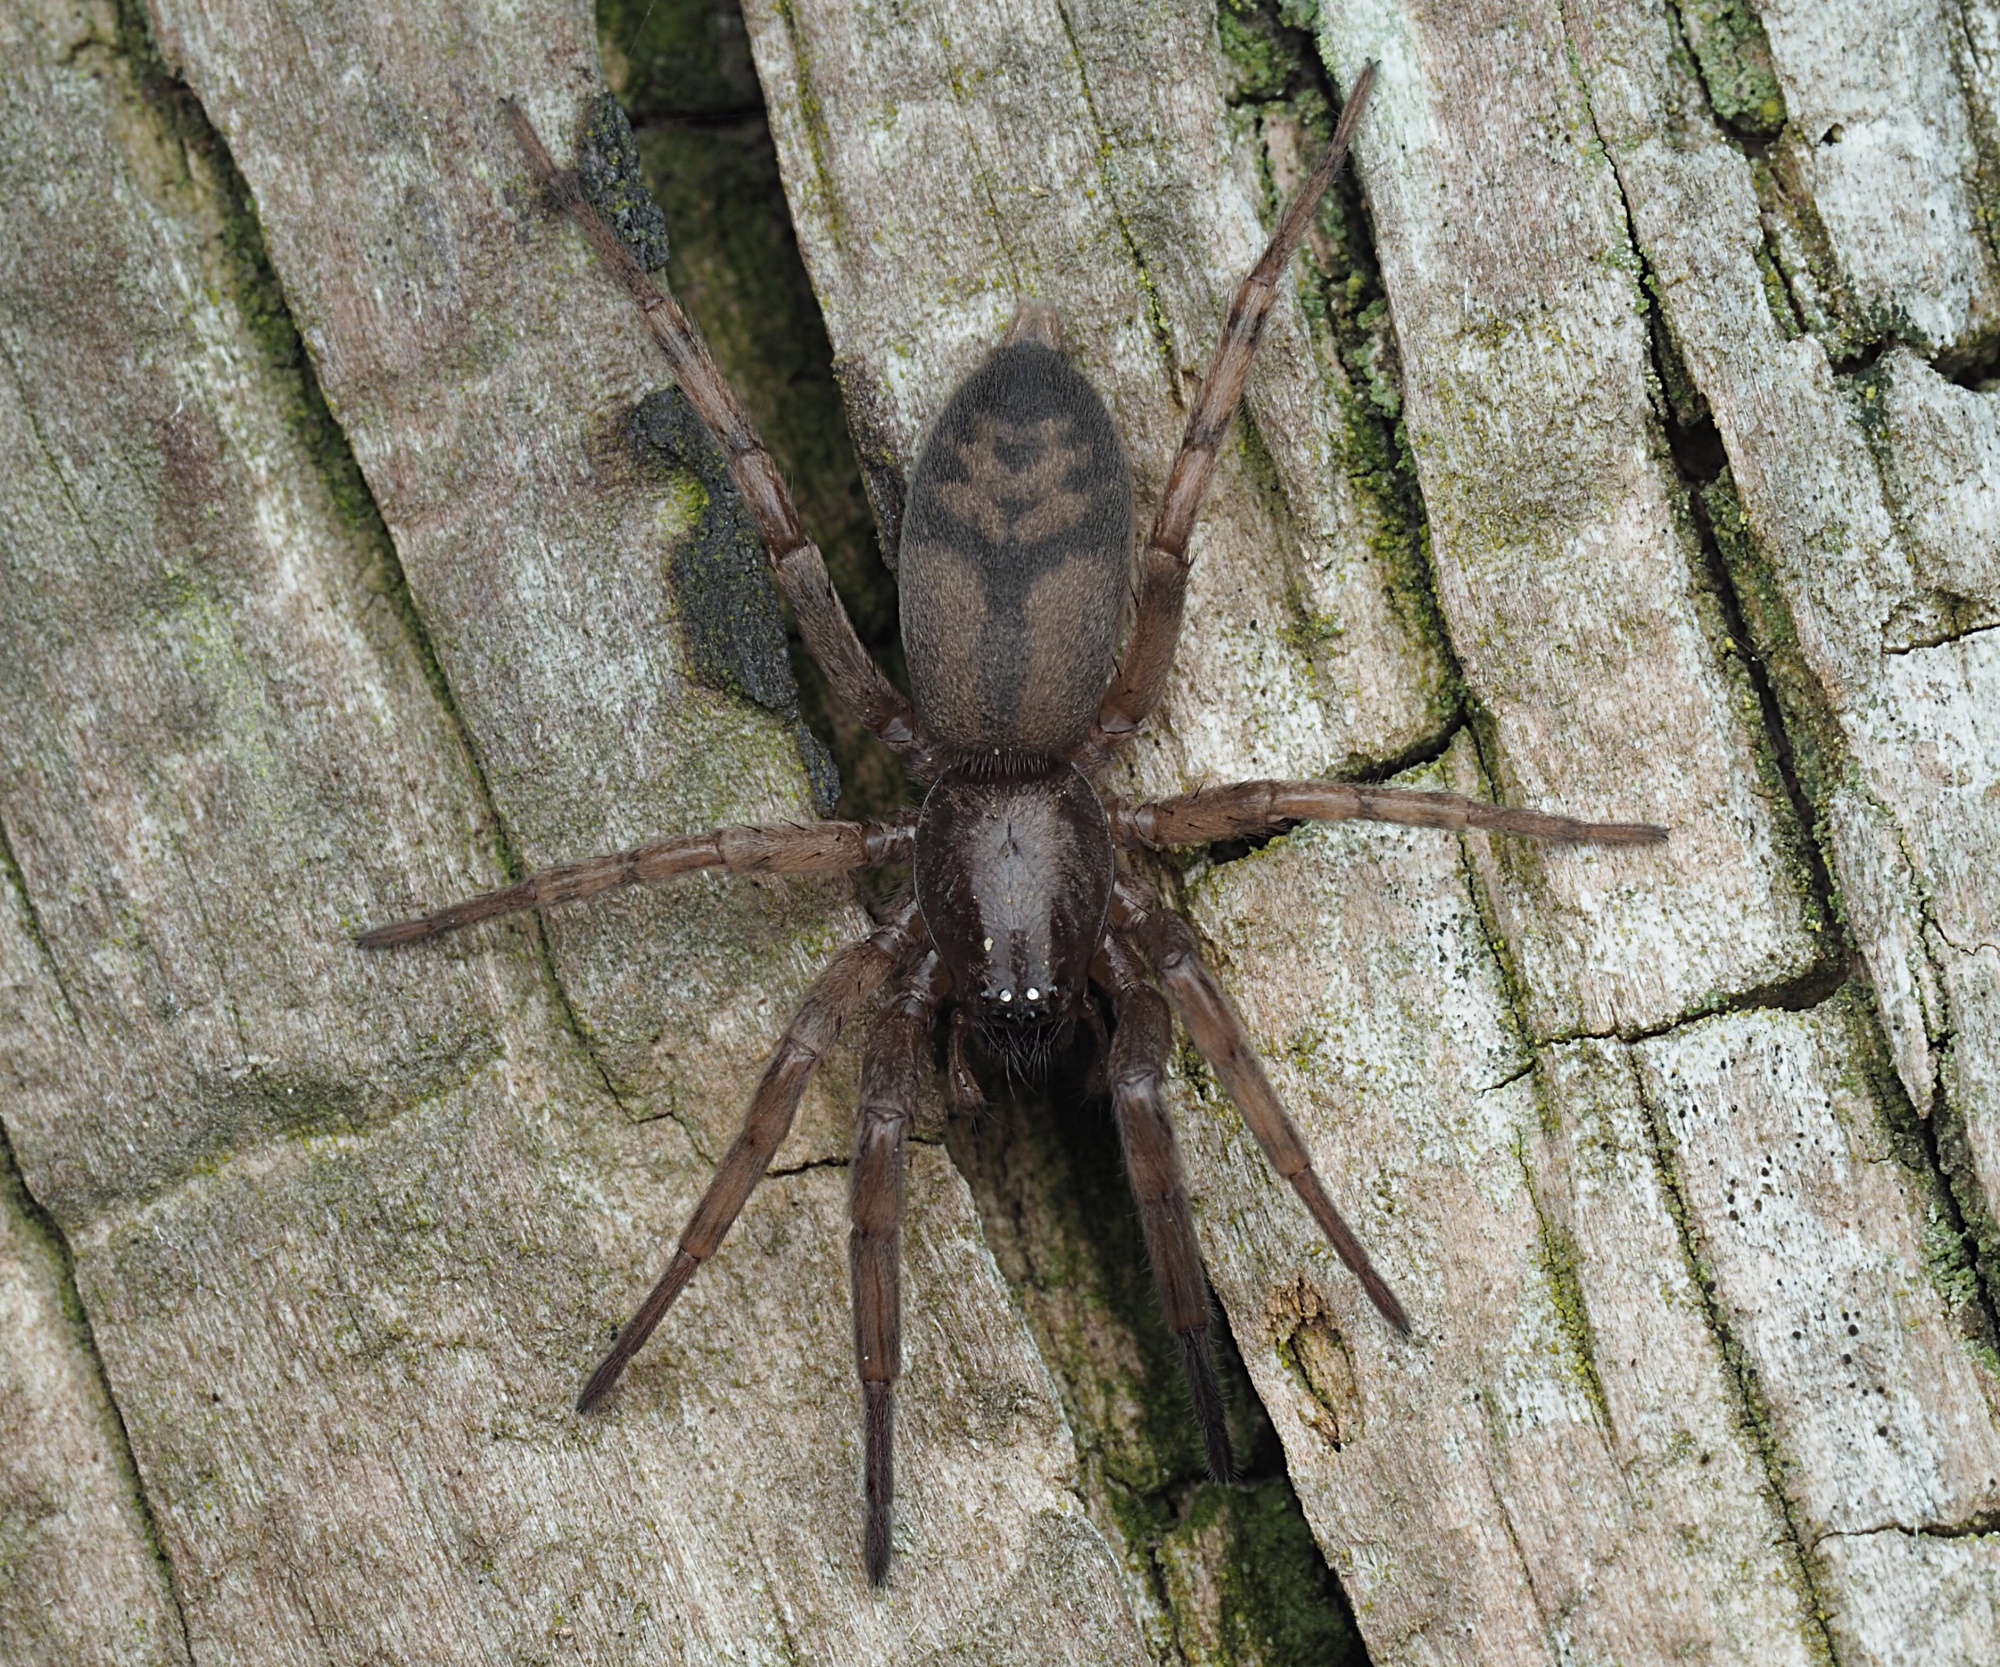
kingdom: Animalia
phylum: Arthropoda
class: Arachnida
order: Araneae
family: Gnaphosidae
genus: Intruda
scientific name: Intruda signata
